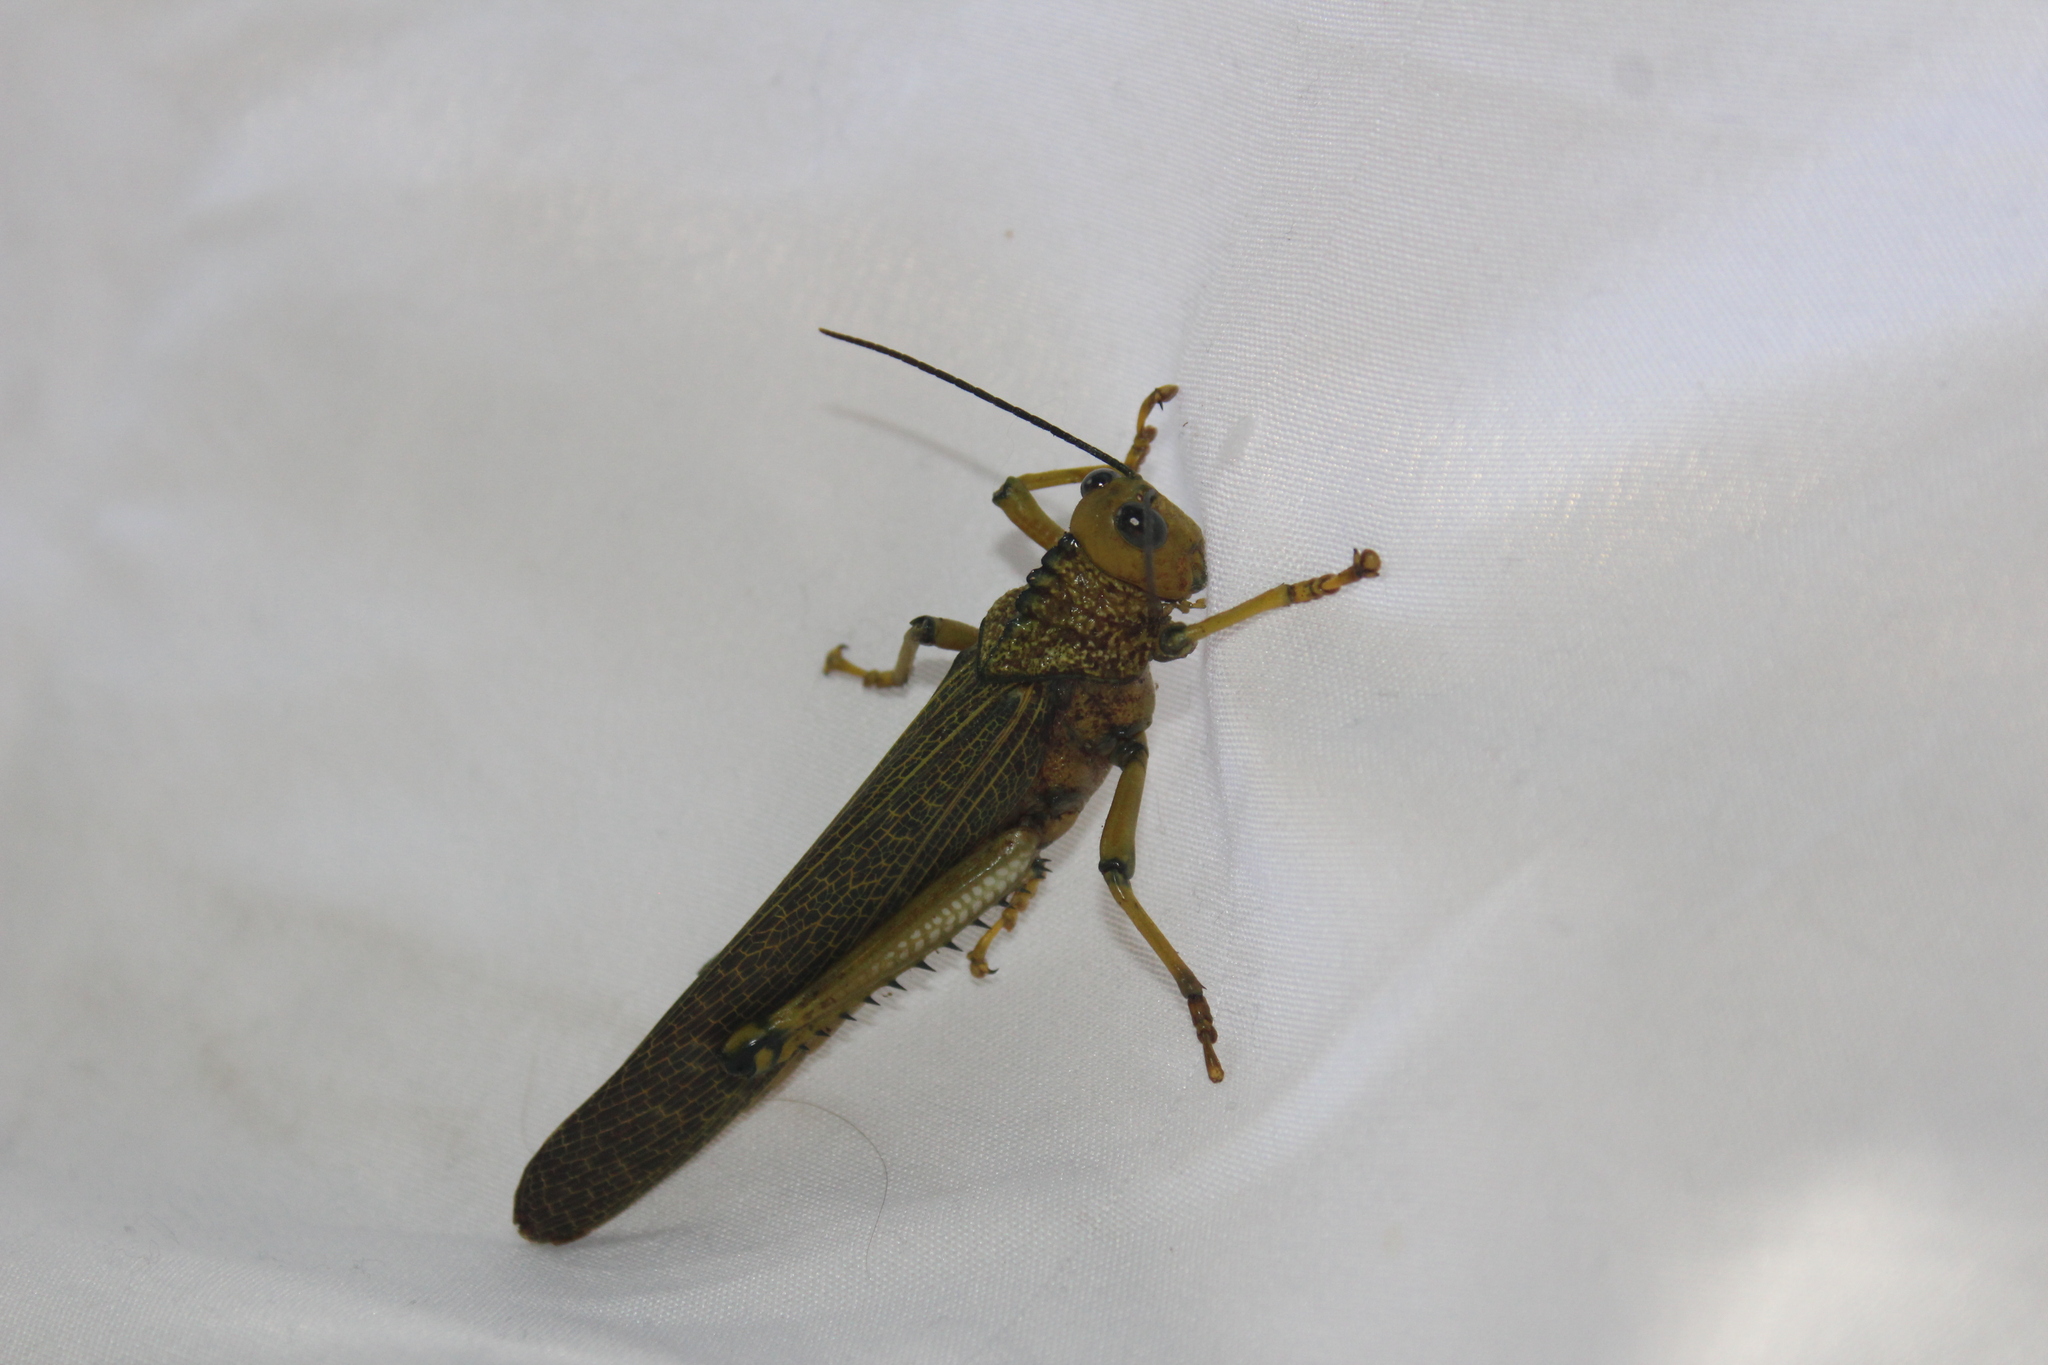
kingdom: Animalia
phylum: Arthropoda
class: Insecta
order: Orthoptera
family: Romaleidae
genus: Tropidacris
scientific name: Tropidacris cristata
